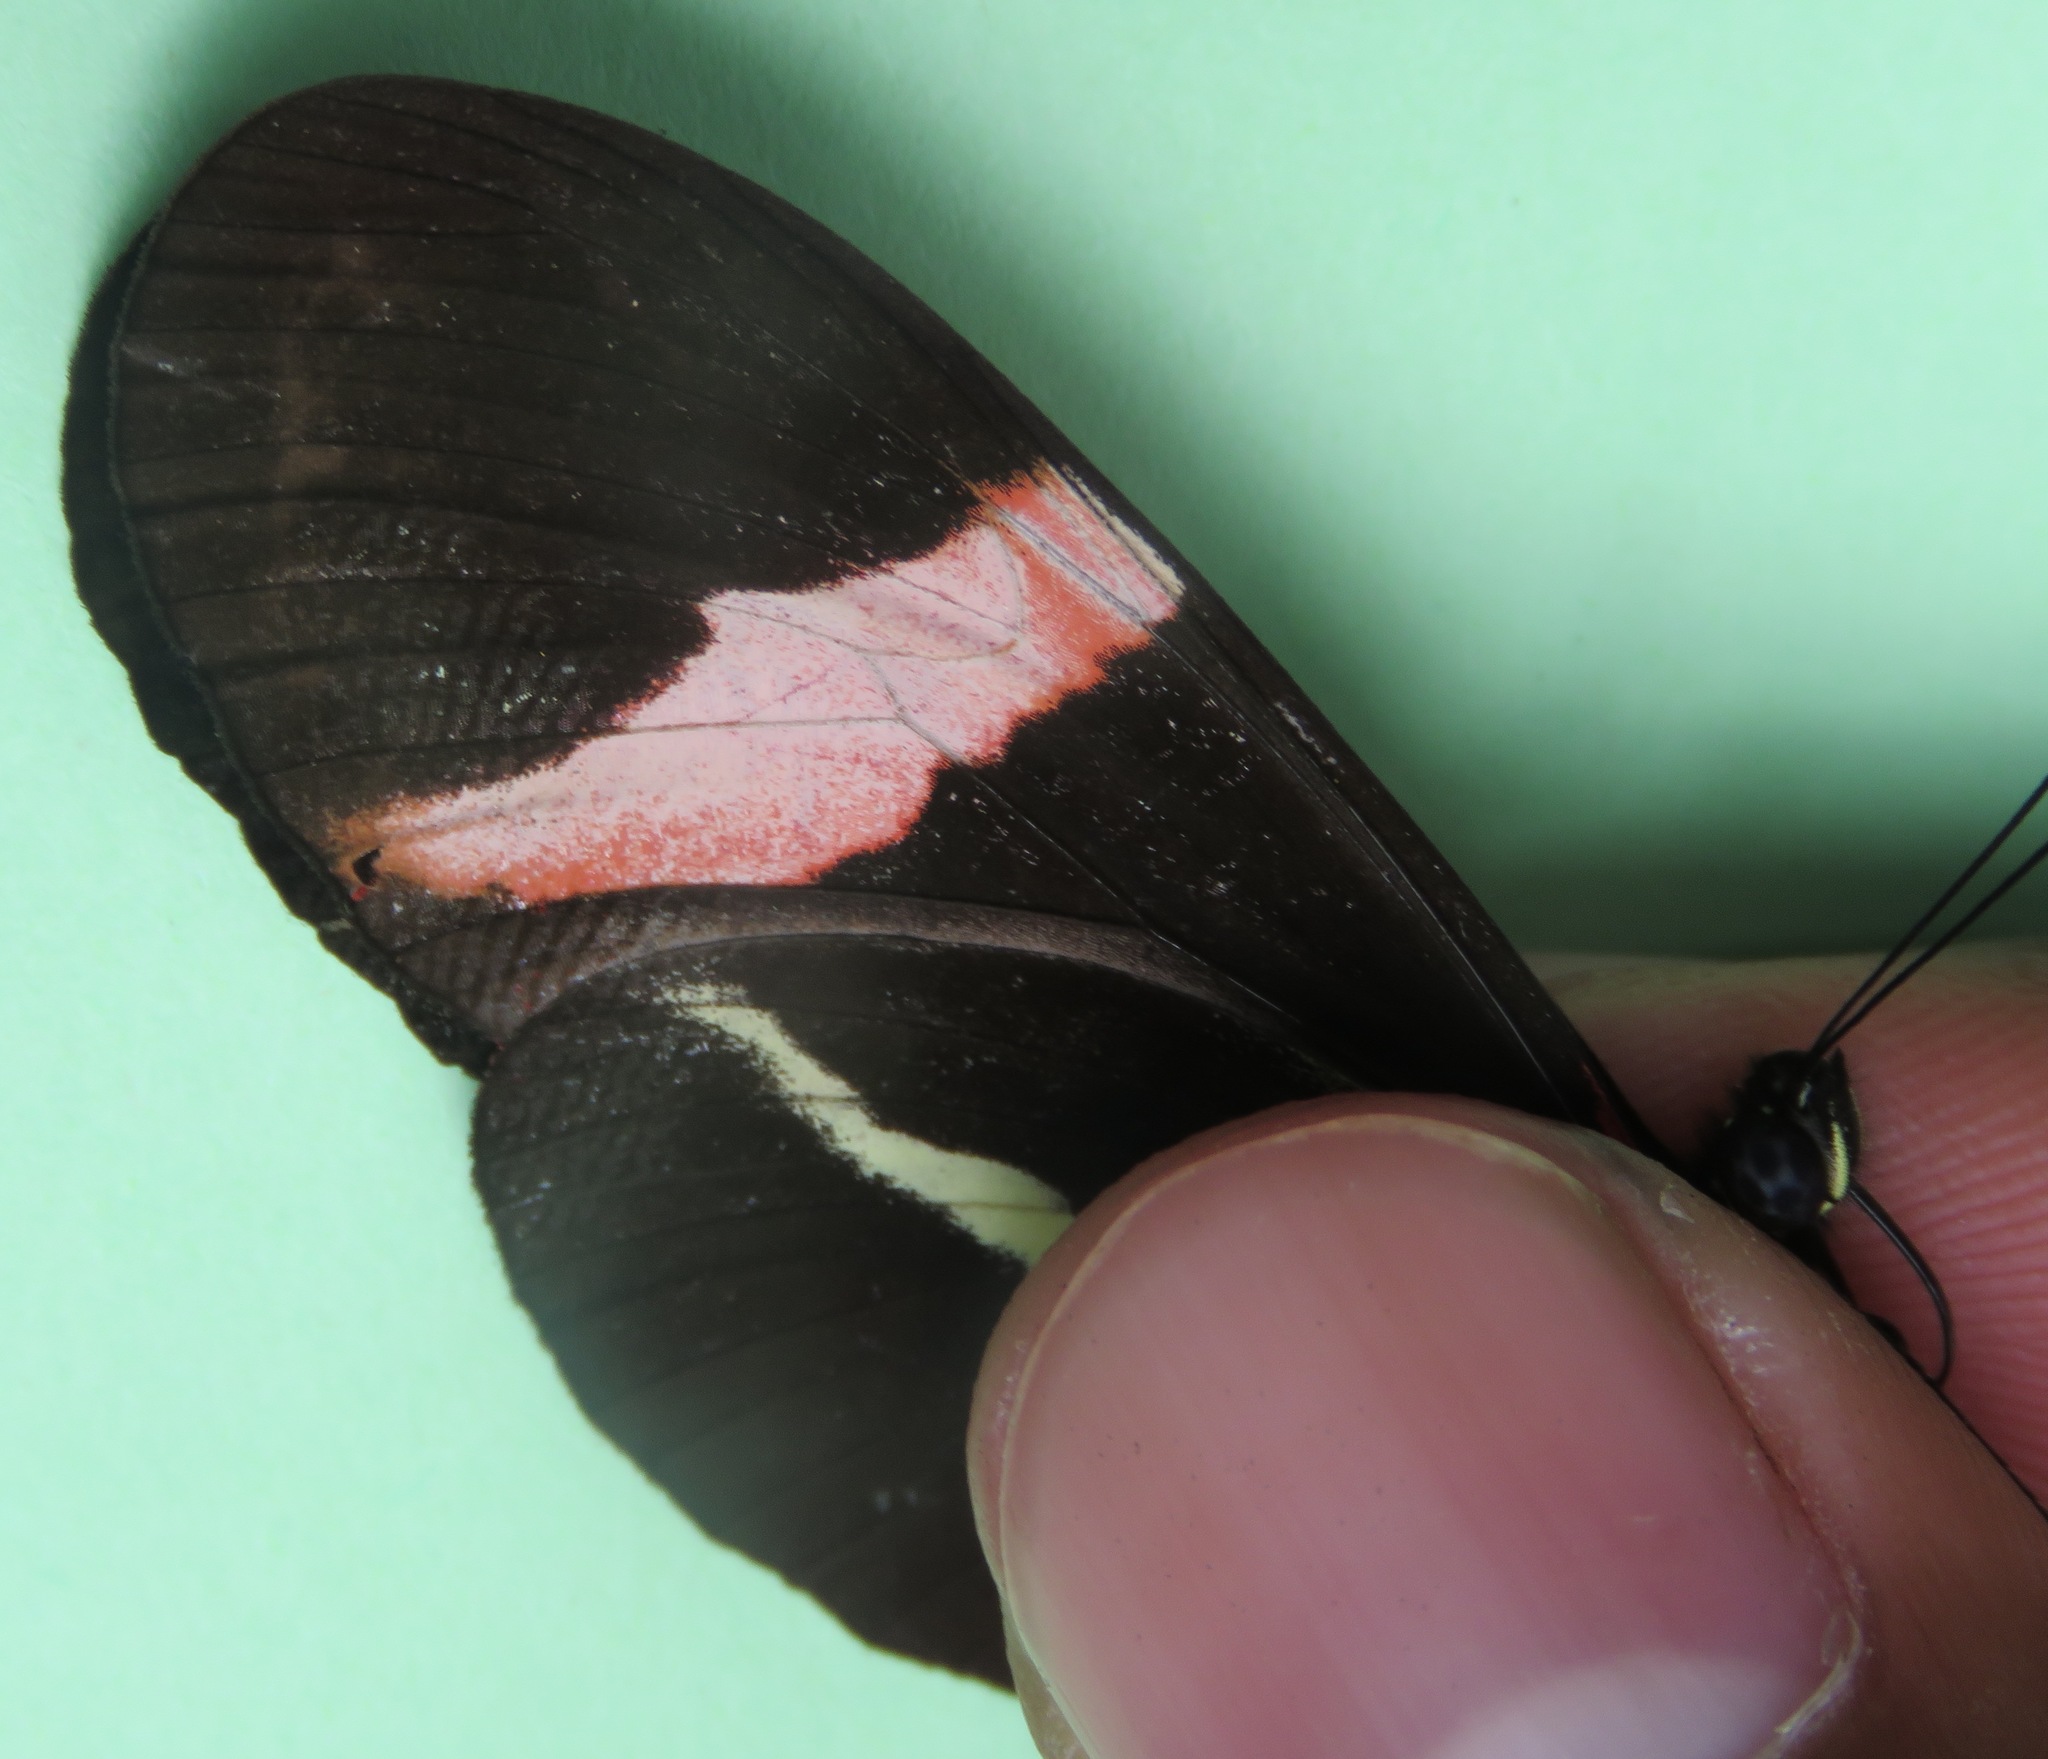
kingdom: Animalia
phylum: Arthropoda
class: Insecta
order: Lepidoptera
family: Nymphalidae
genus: Tirumala
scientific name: Tirumala petiverana
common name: Blue monarch
